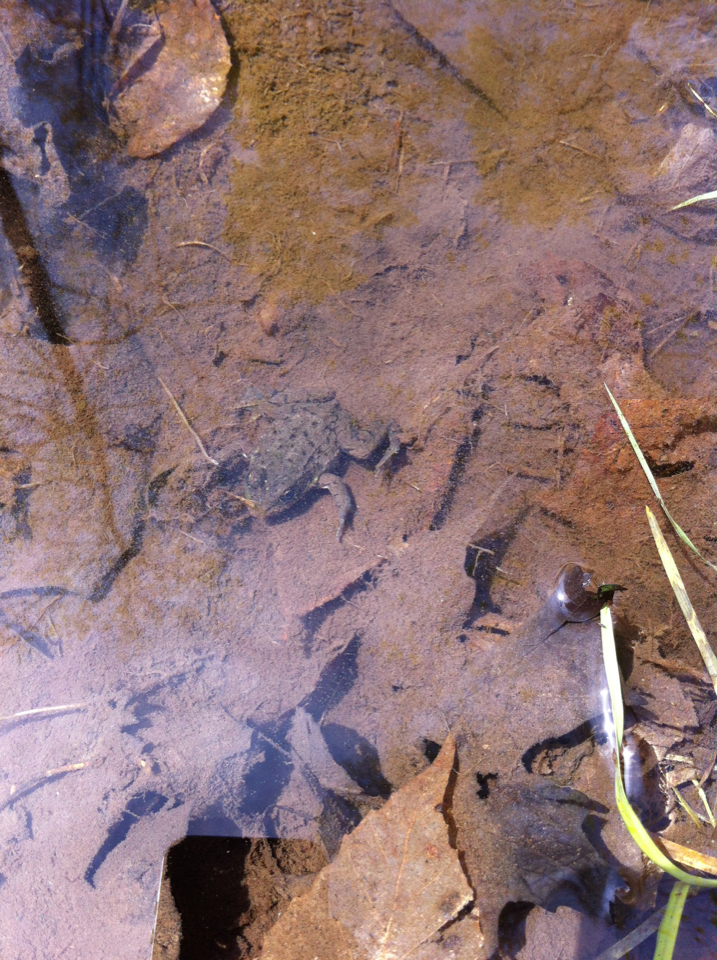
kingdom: Animalia
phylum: Chordata
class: Amphibia
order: Anura
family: Ranidae
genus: Lithobates
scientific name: Lithobates clamitans
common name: Green frog
